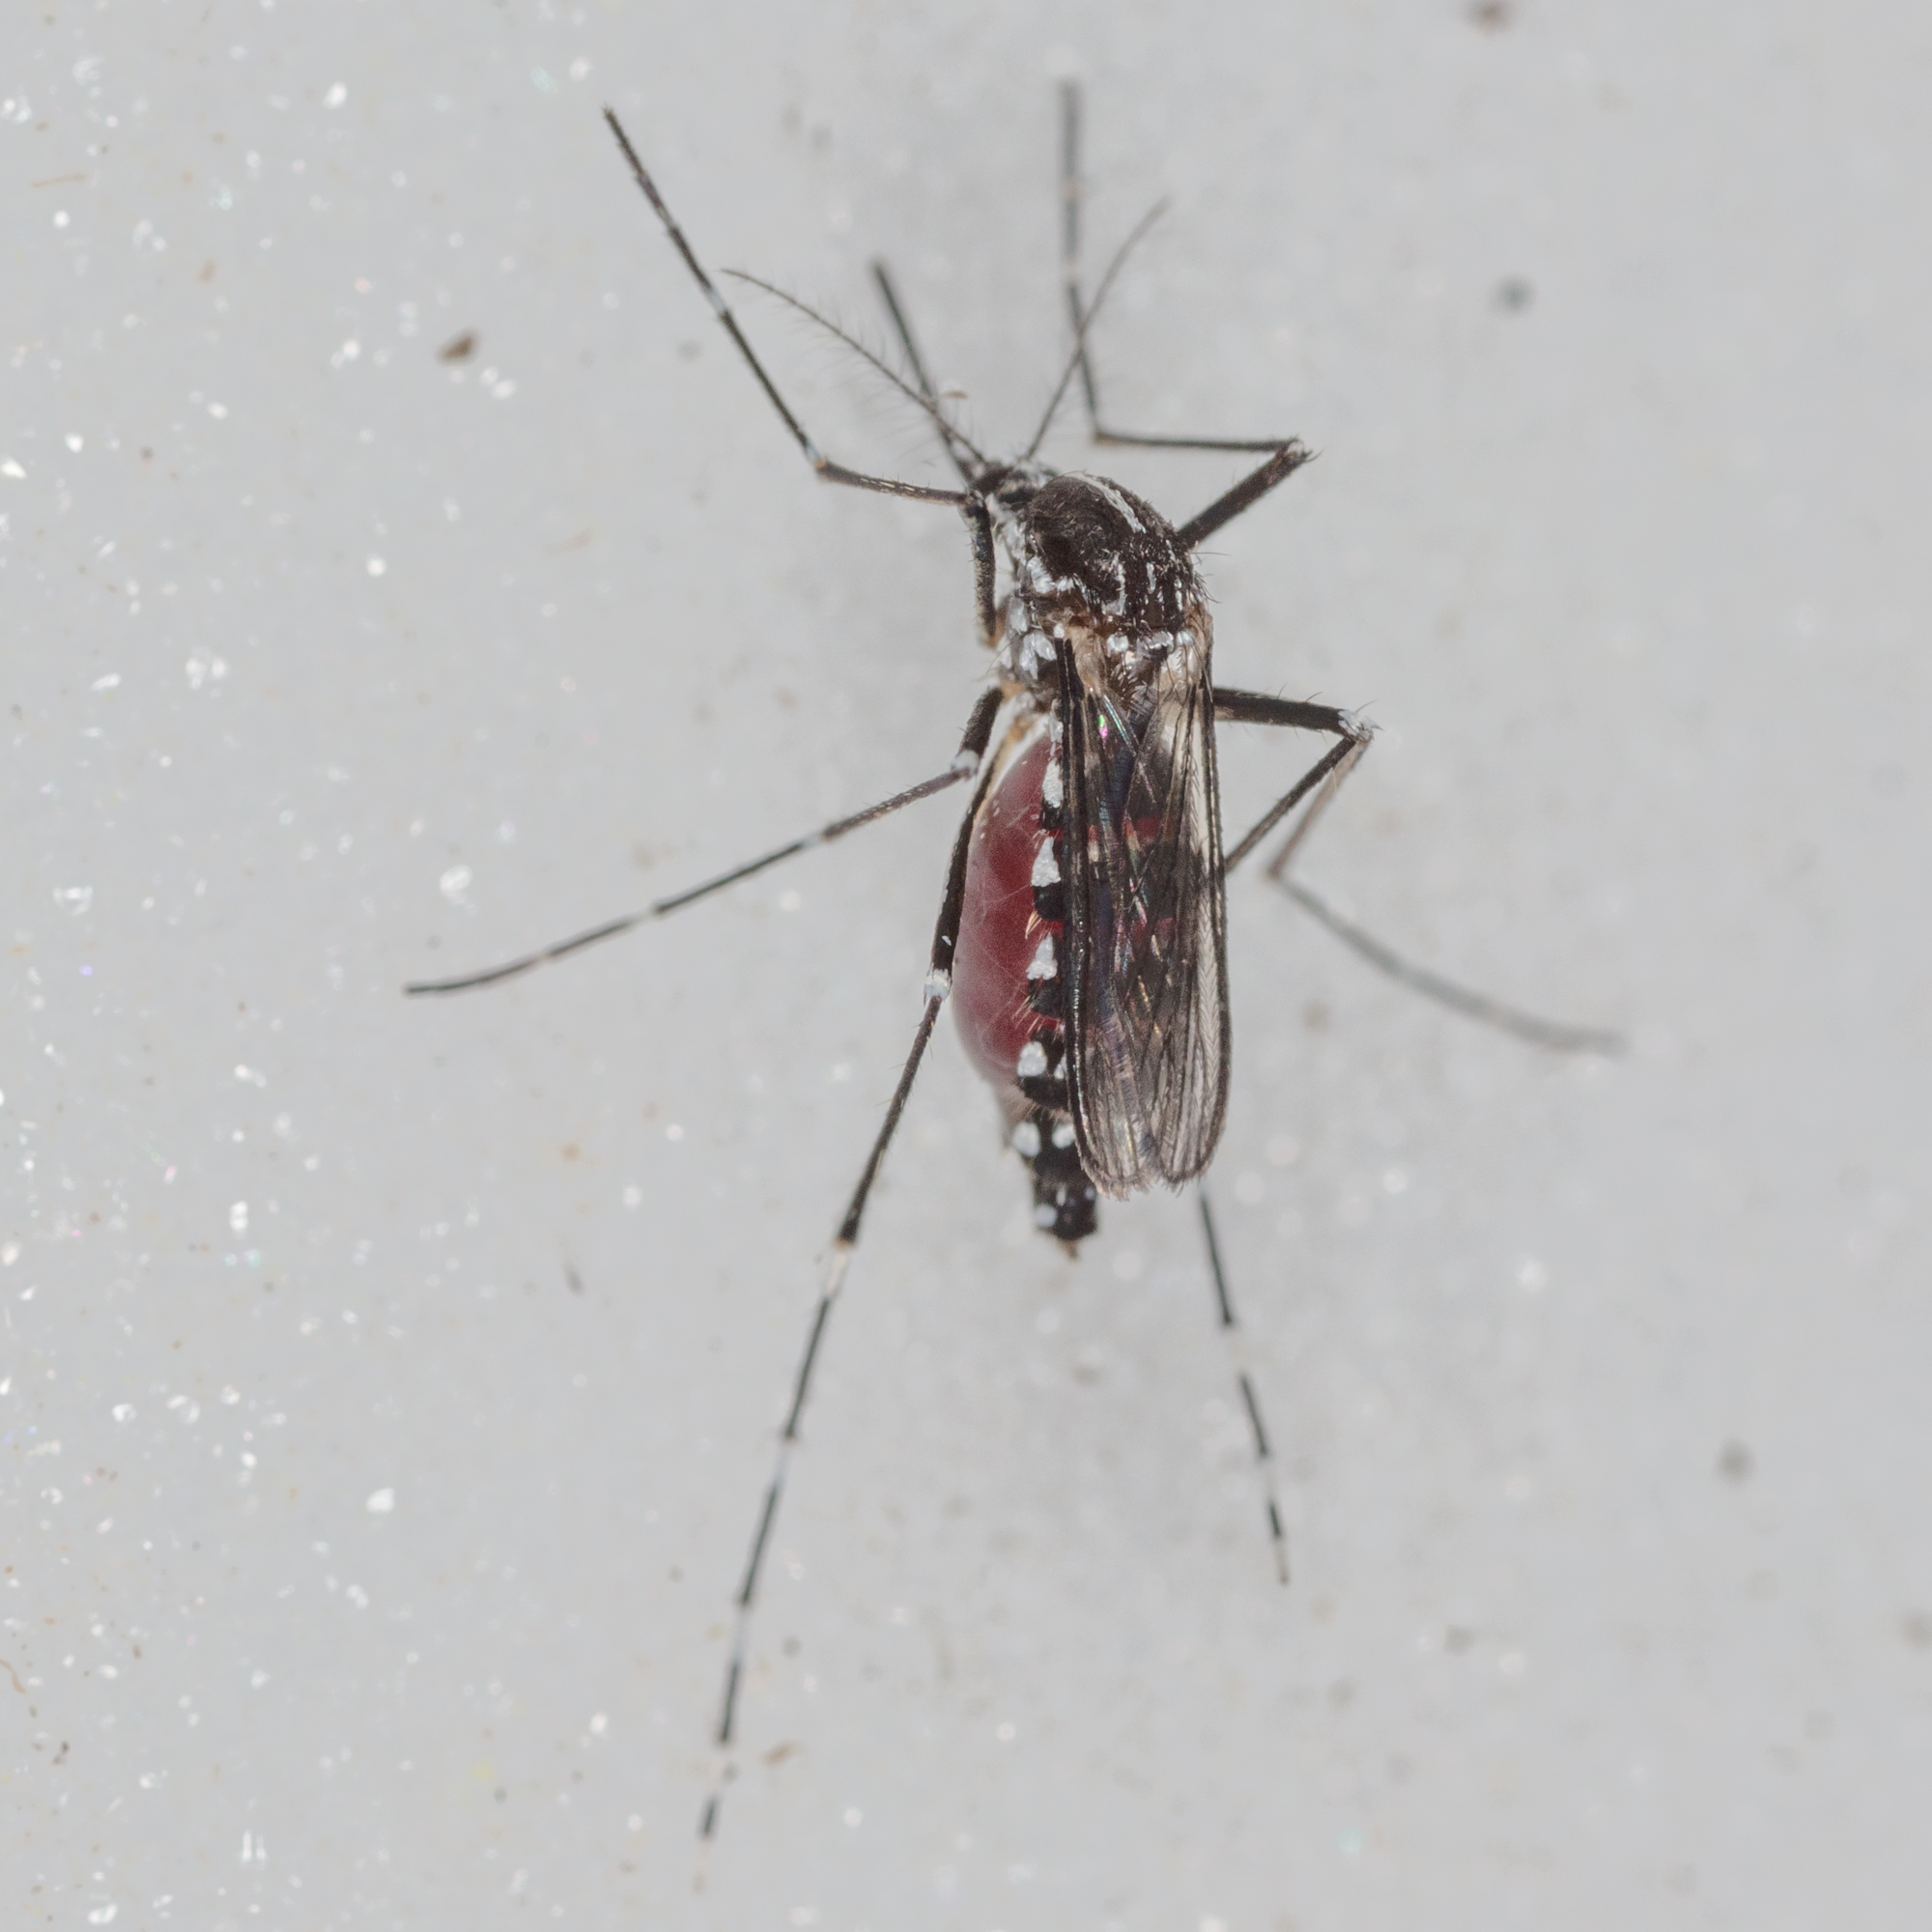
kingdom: Animalia
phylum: Arthropoda
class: Insecta
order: Diptera
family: Culicidae
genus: Aedes
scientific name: Aedes albopictus
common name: Tiger mosquito
